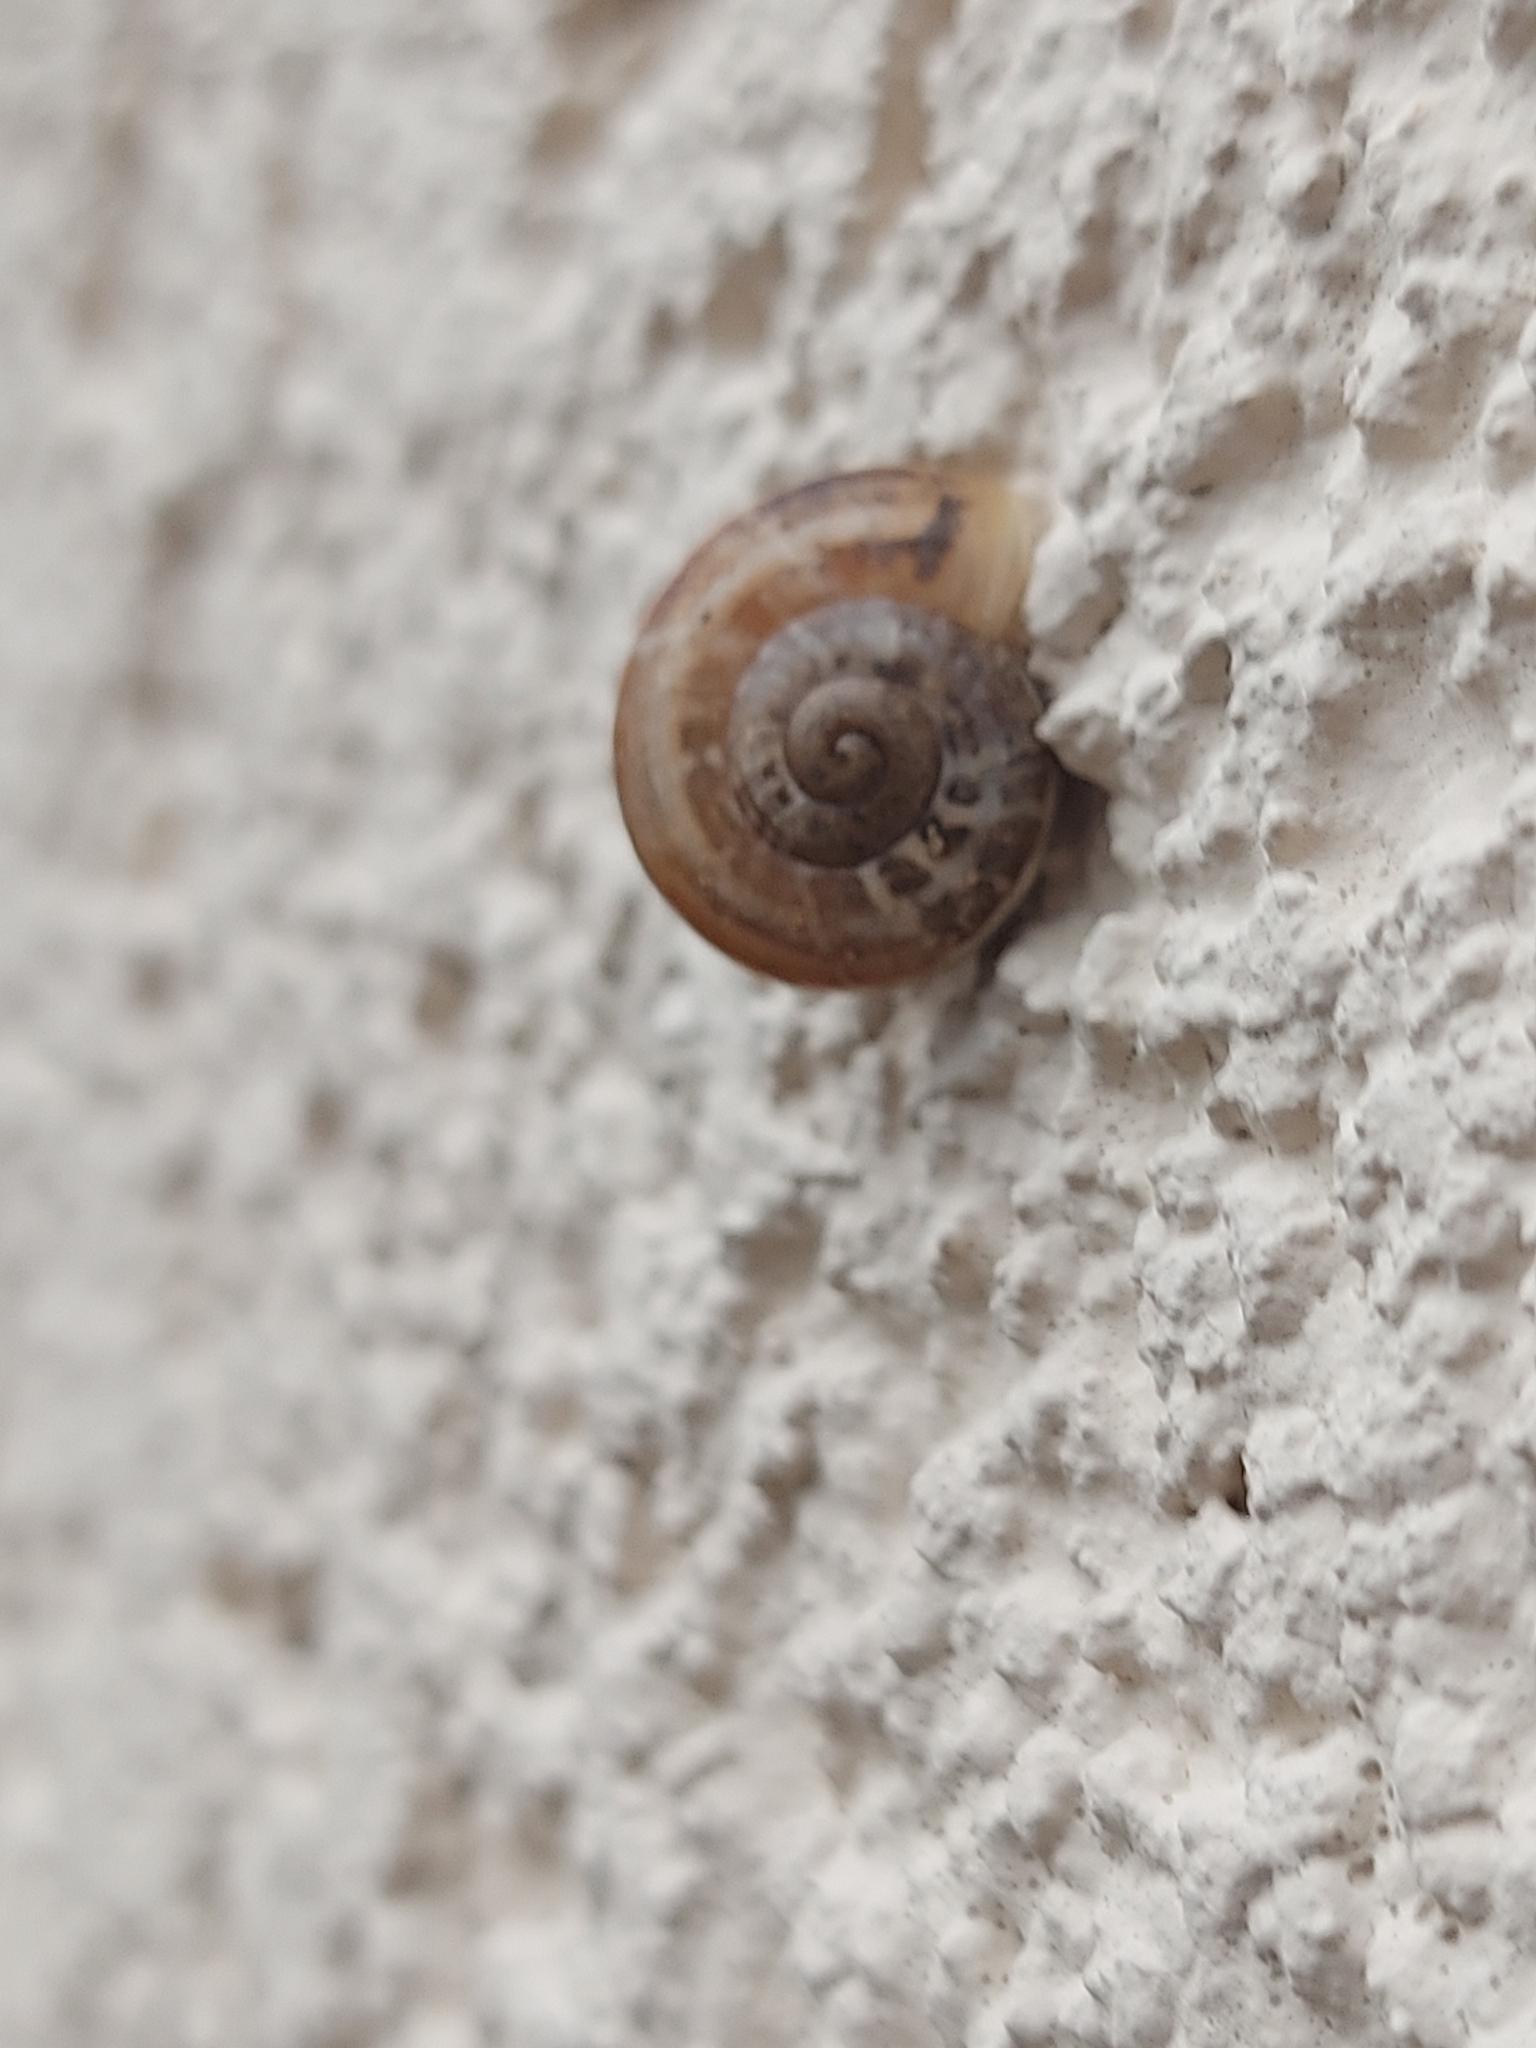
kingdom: Animalia
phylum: Mollusca
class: Gastropoda
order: Stylommatophora
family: Helicidae
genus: Eobania
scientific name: Eobania vermiculata
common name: Chocolateband snail
